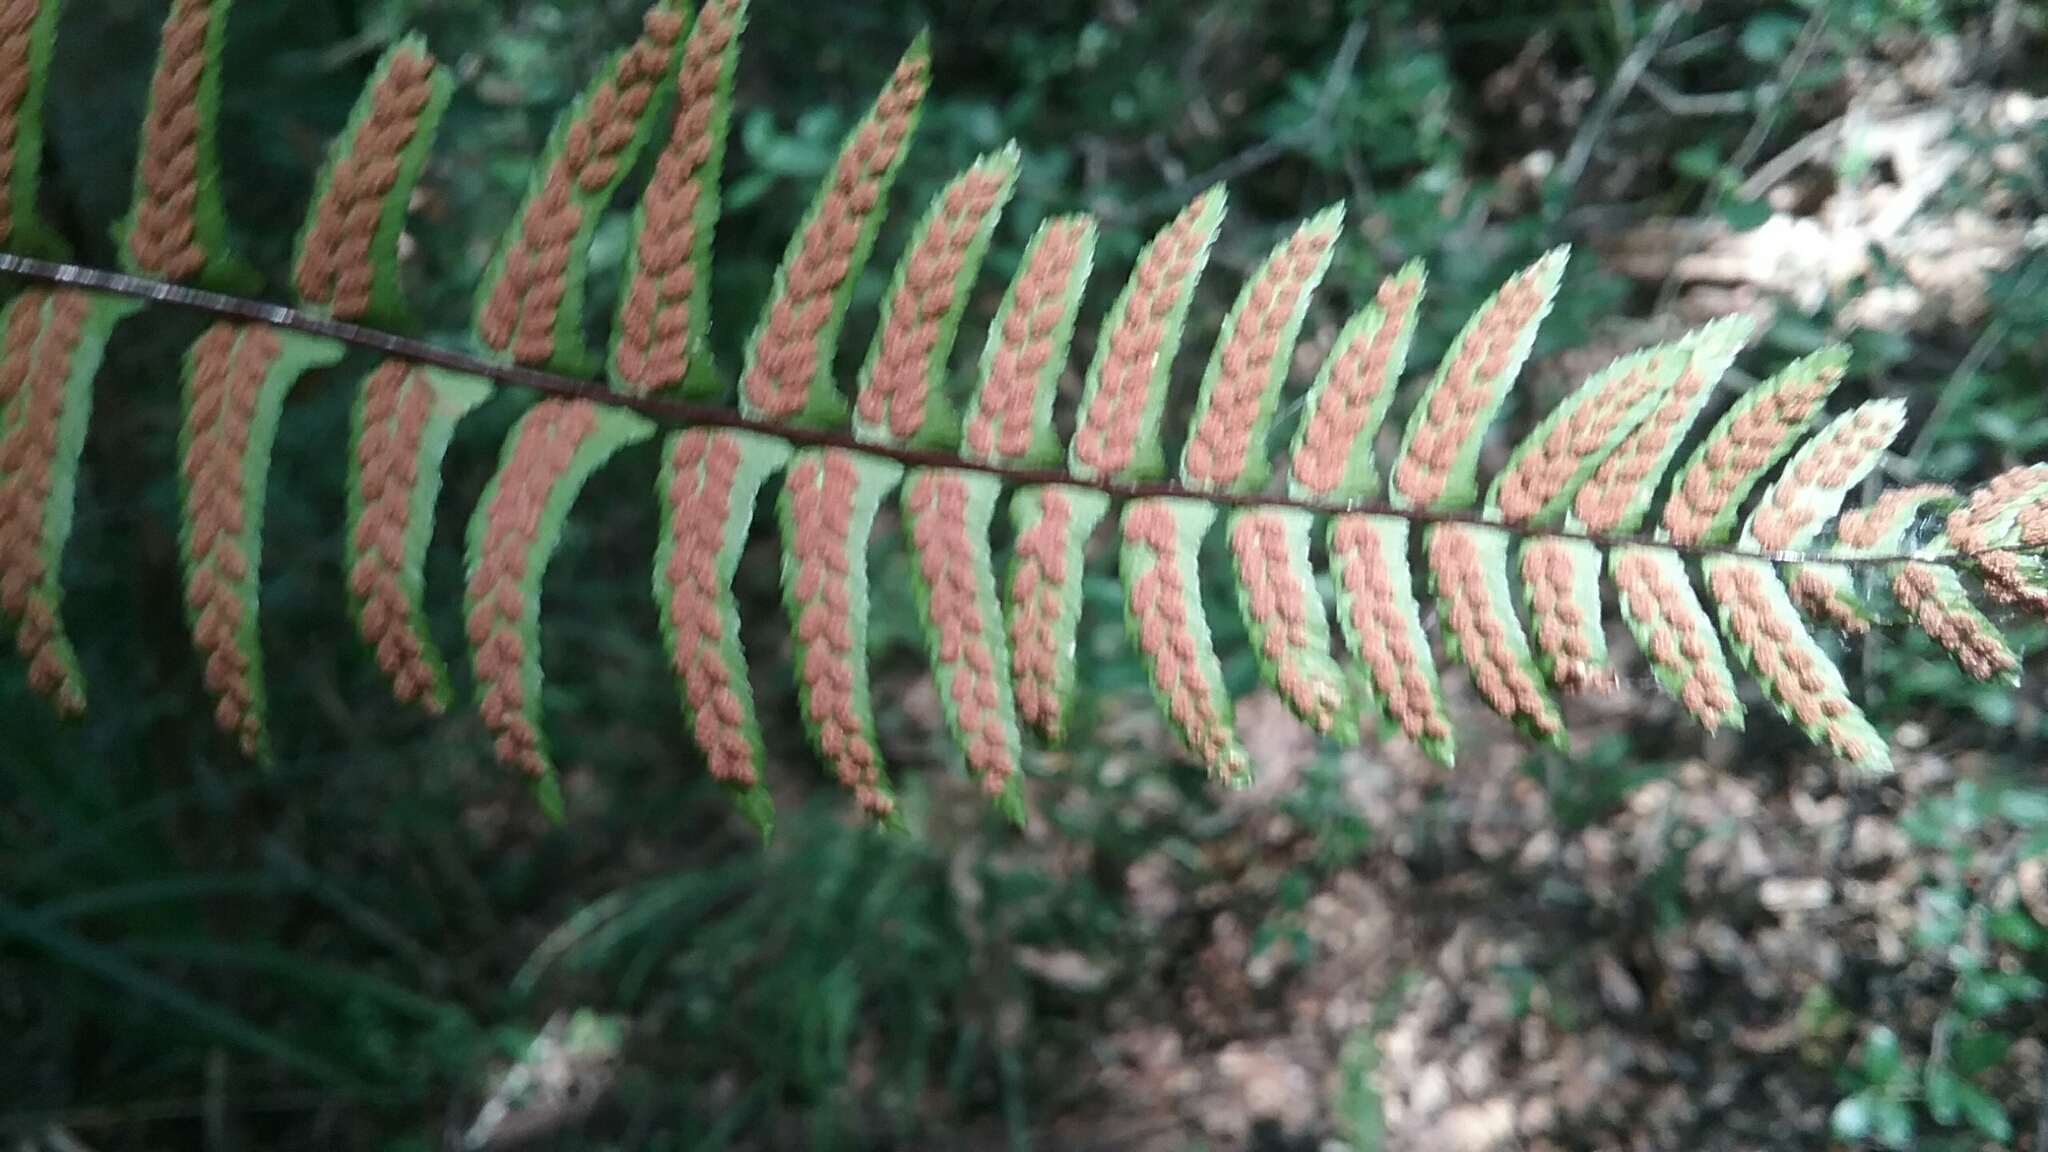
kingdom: Plantae
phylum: Tracheophyta
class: Polypodiopsida
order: Polypodiales
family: Aspleniaceae
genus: Asplenium
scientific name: Asplenium platyneuron
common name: Ebony spleenwort
